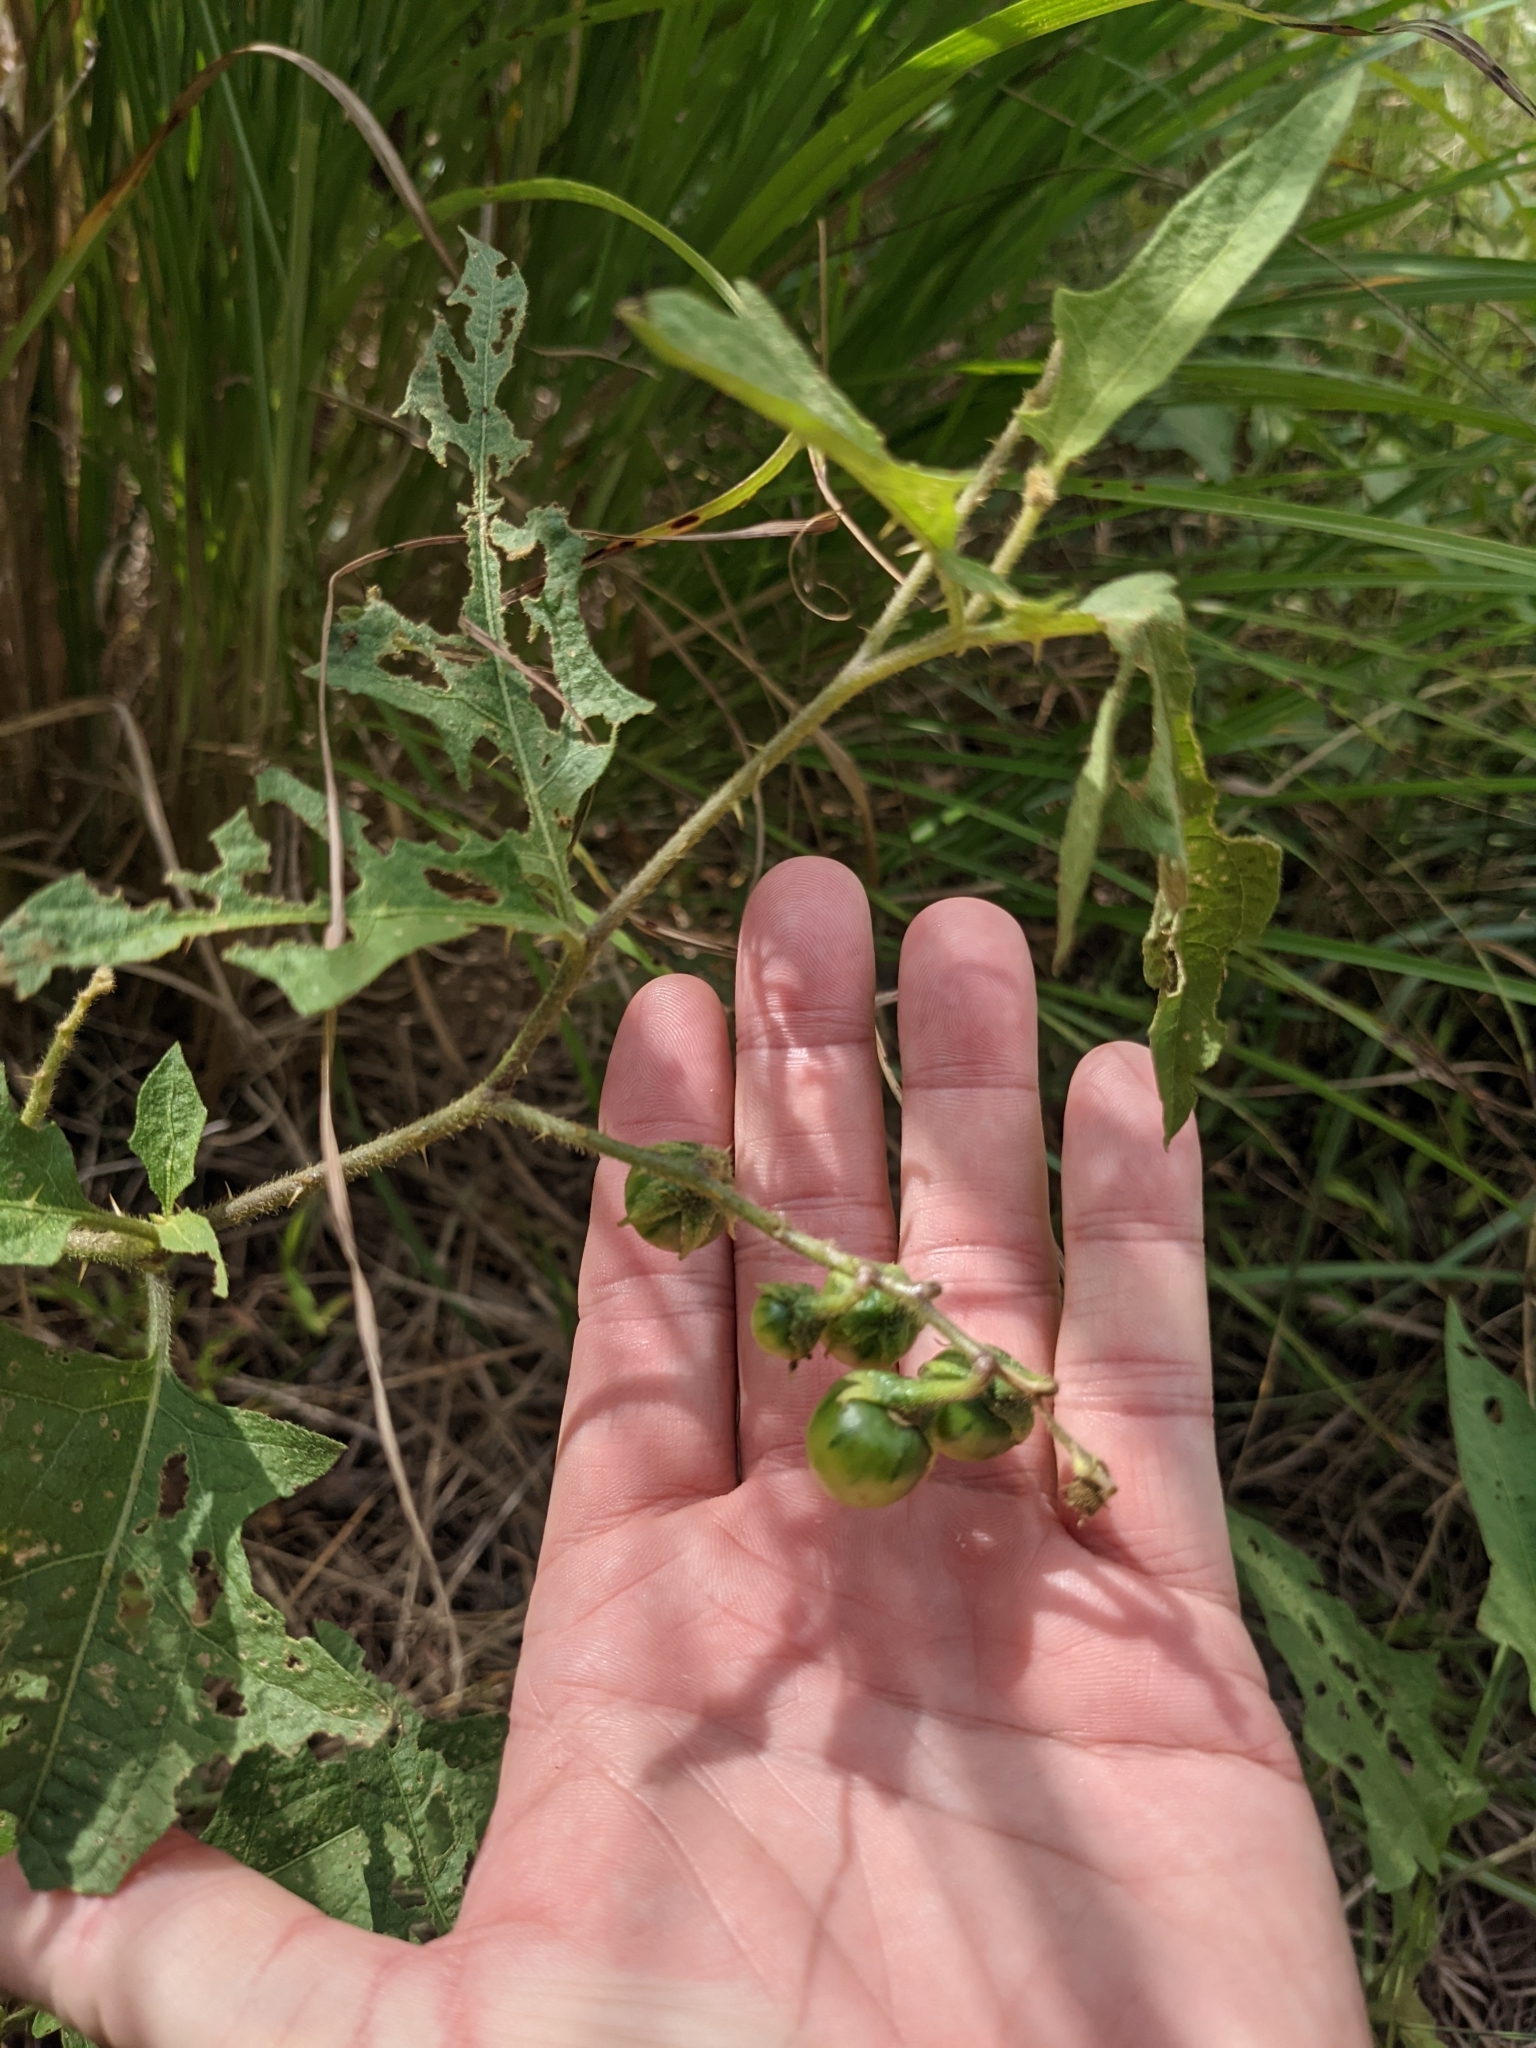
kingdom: Plantae
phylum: Tracheophyta
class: Magnoliopsida
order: Solanales
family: Solanaceae
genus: Solanum
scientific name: Solanum carolinense
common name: Horse-nettle
